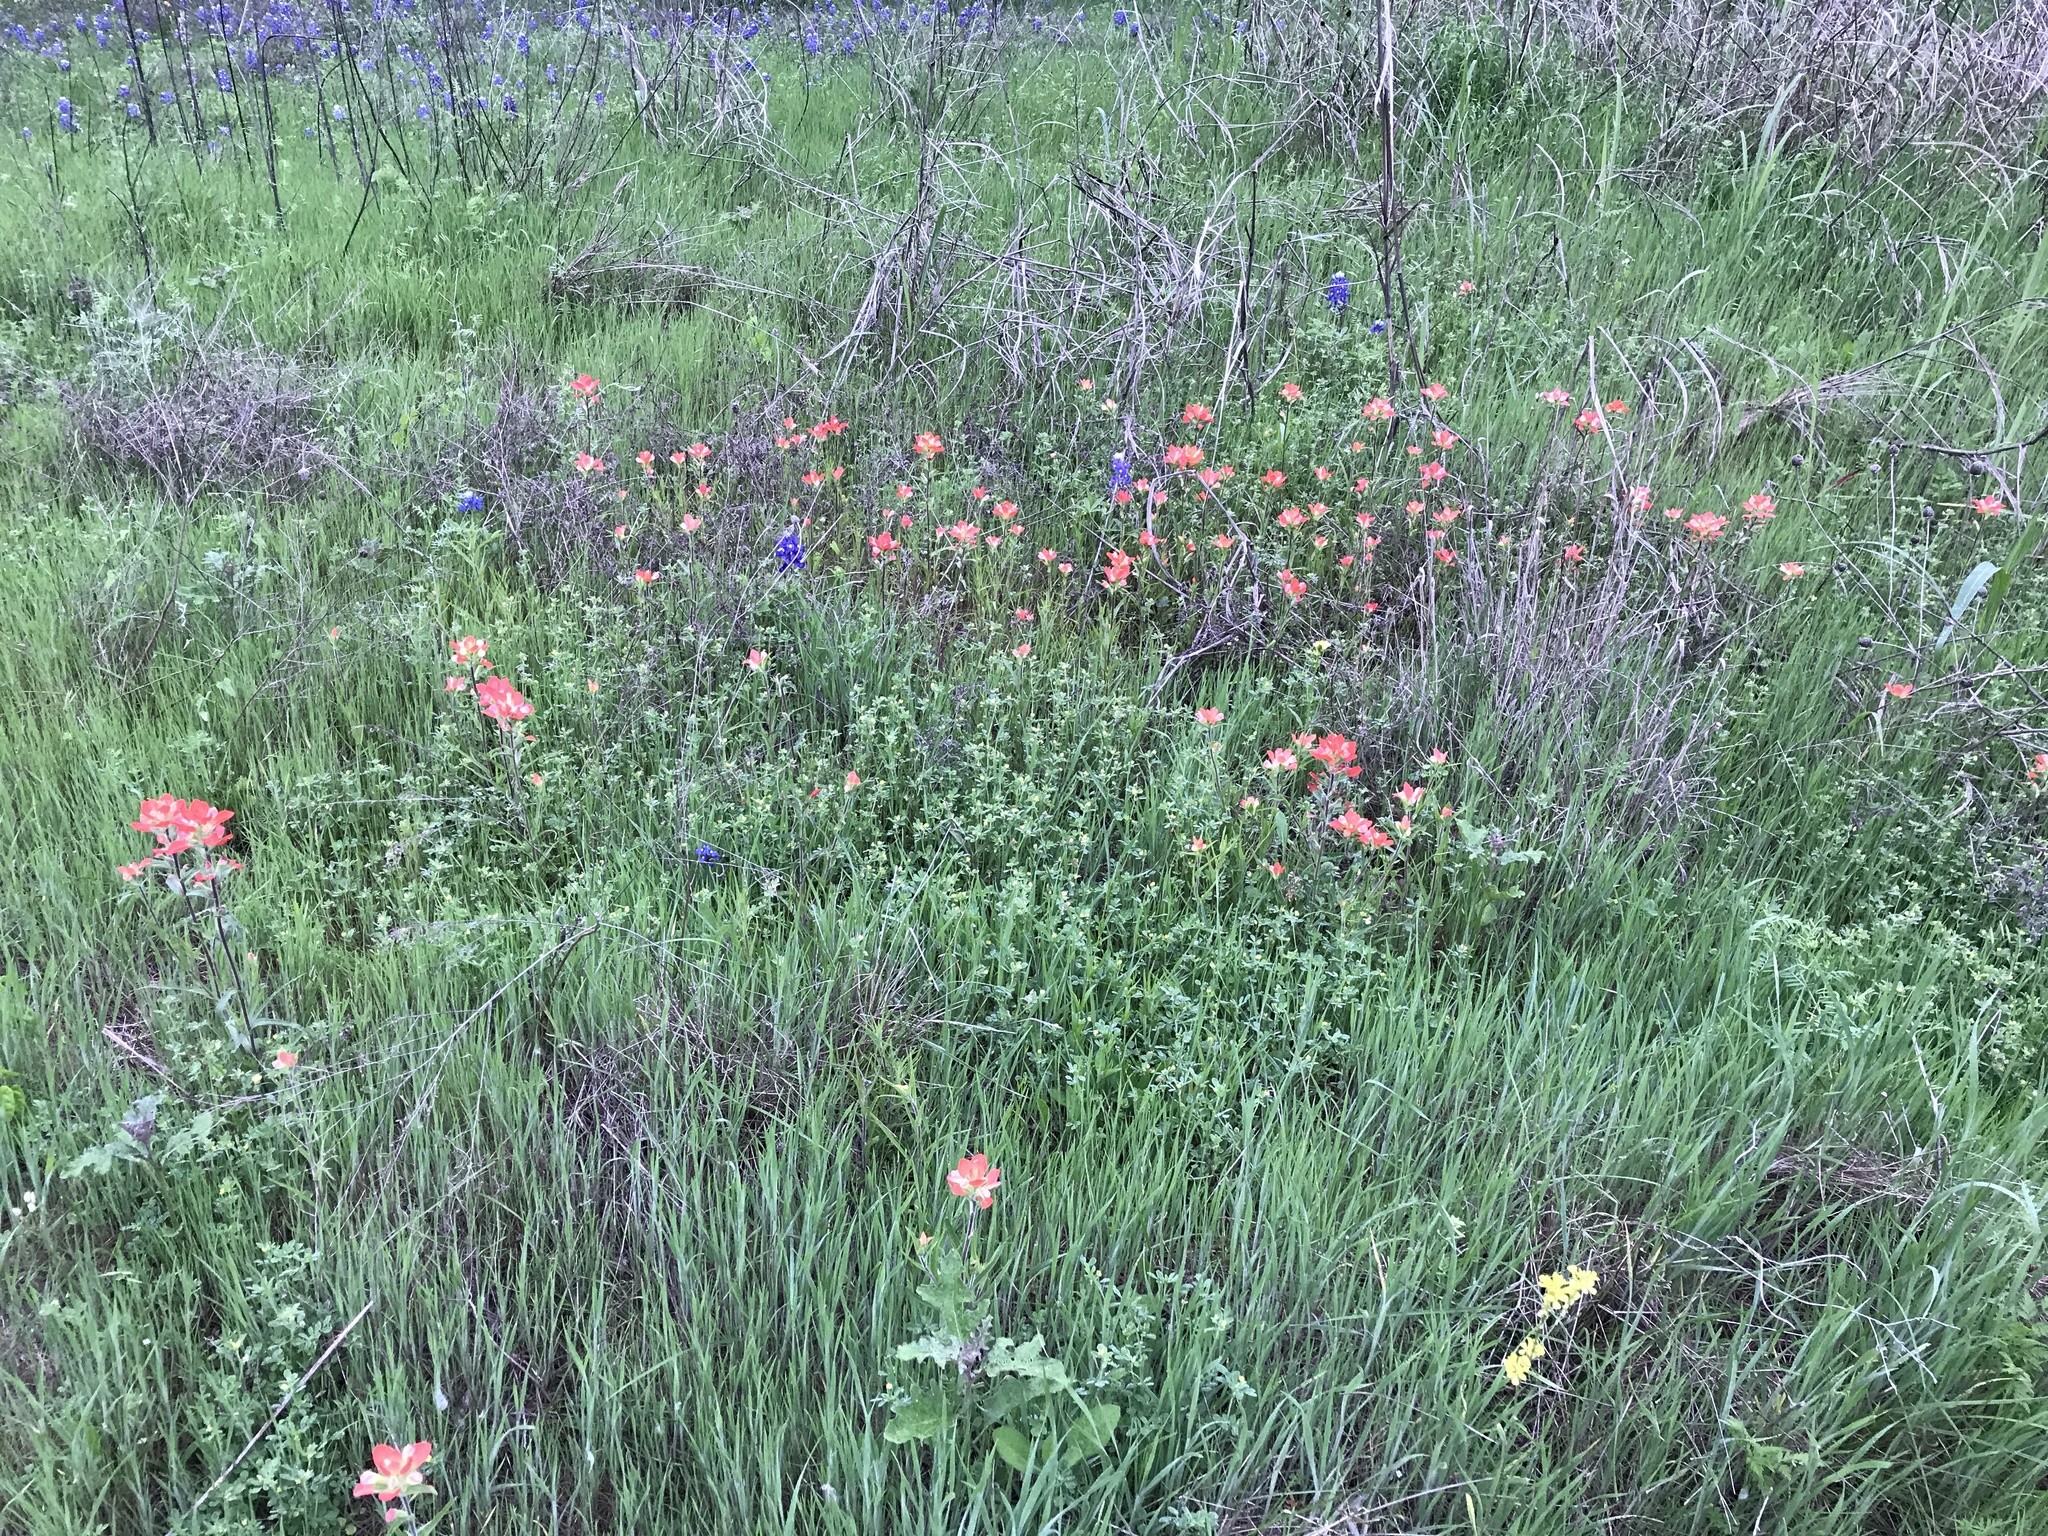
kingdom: Plantae
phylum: Tracheophyta
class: Magnoliopsida
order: Lamiales
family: Orobanchaceae
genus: Castilleja
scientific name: Castilleja indivisa
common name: Texas paintbrush
